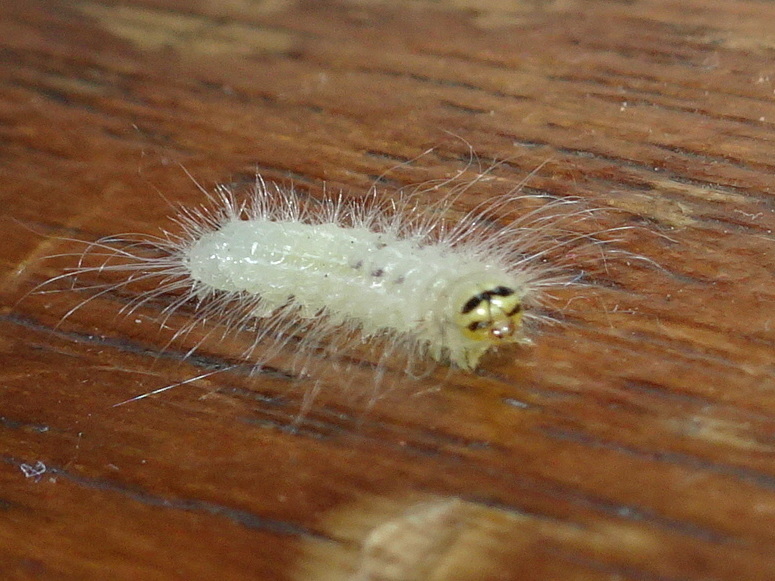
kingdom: Animalia
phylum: Arthropoda
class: Insecta
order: Lepidoptera
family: Noctuidae
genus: Charadra
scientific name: Charadra deridens
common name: Marbled tuffet
